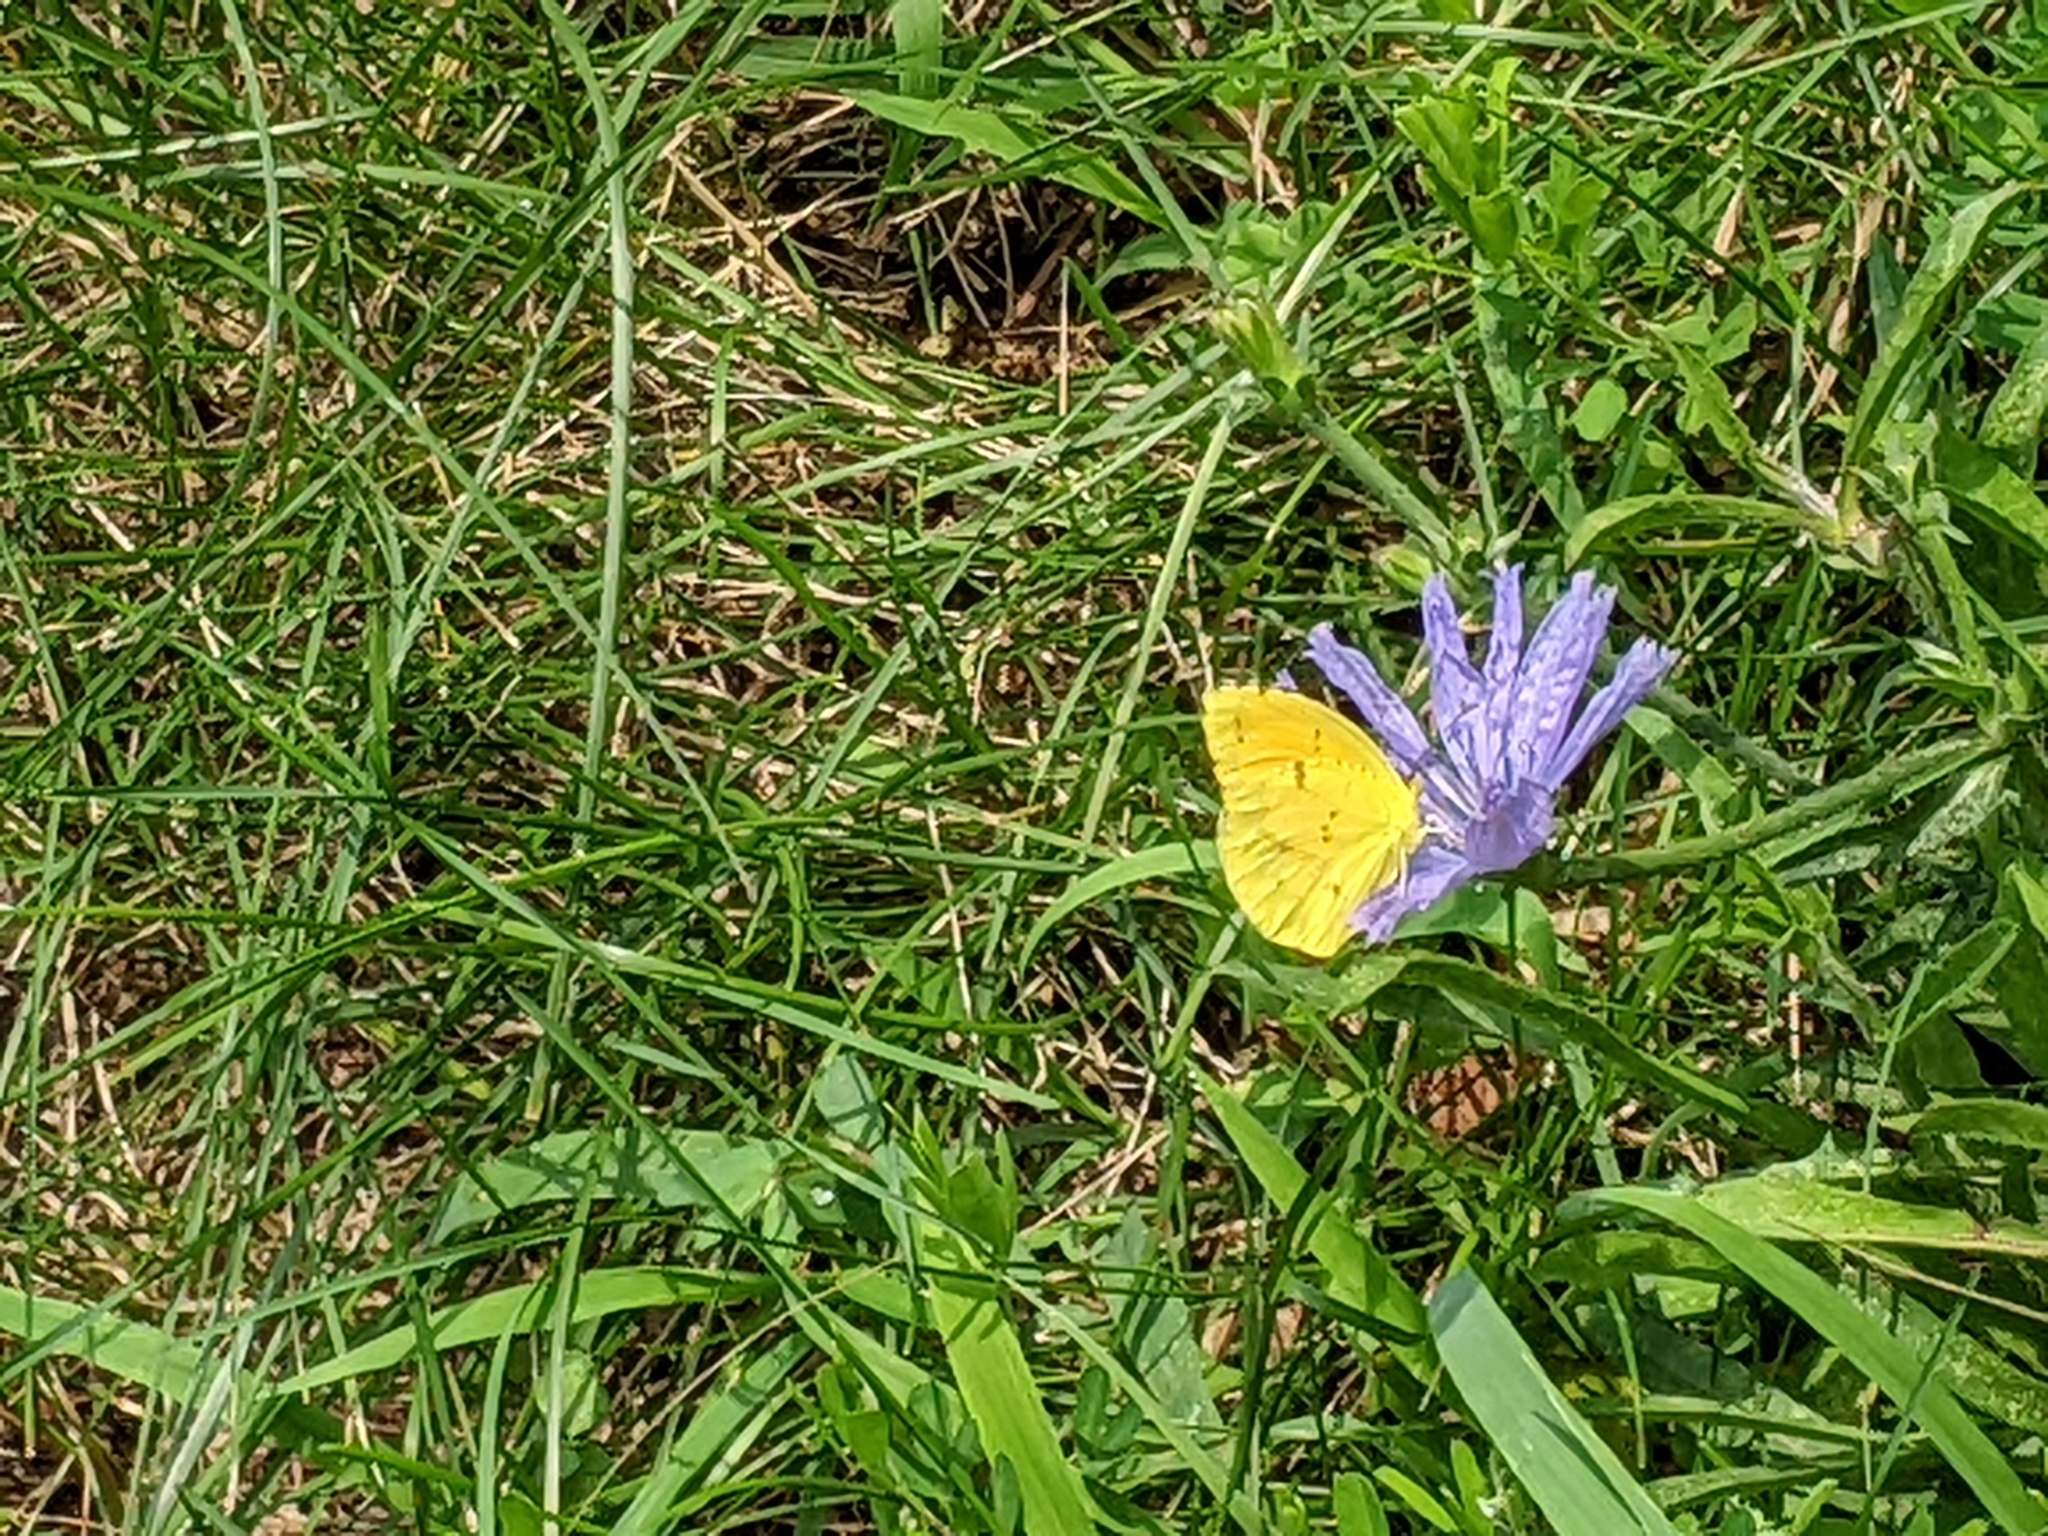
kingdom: Animalia
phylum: Arthropoda
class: Insecta
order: Lepidoptera
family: Pieridae
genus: Abaeis
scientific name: Abaeis nicippe
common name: Sleepy orange
